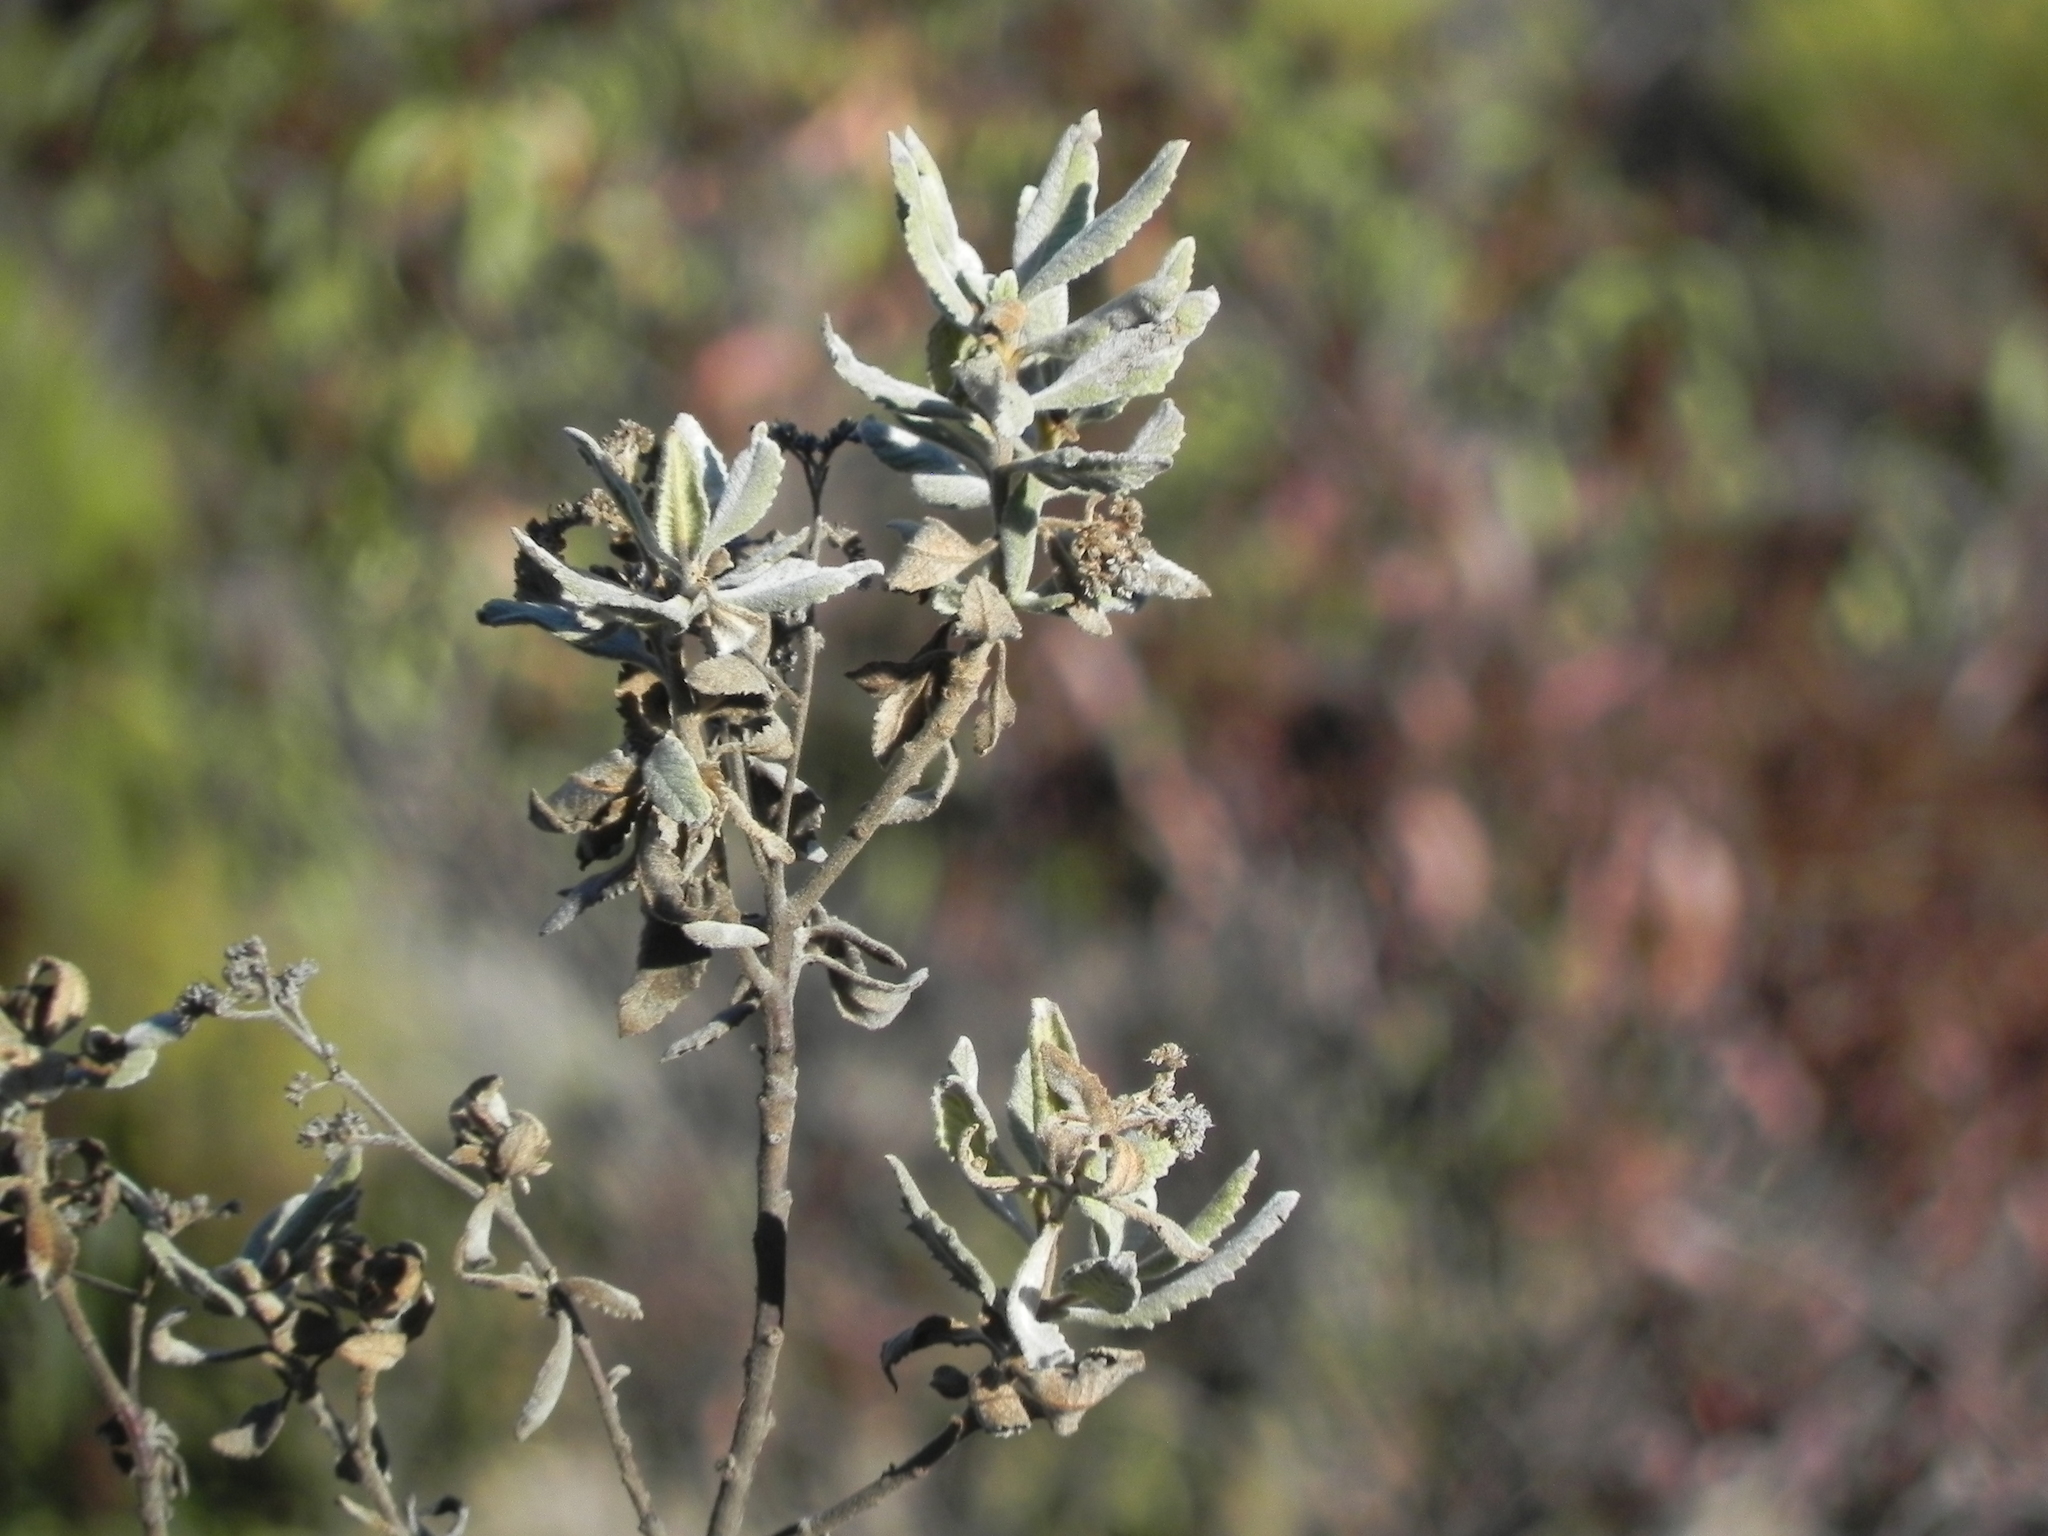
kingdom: Plantae
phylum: Tracheophyta
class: Magnoliopsida
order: Boraginales
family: Namaceae
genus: Eriodictyon
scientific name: Eriodictyon crassifolium
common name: Thick-leaf yerba-santa
